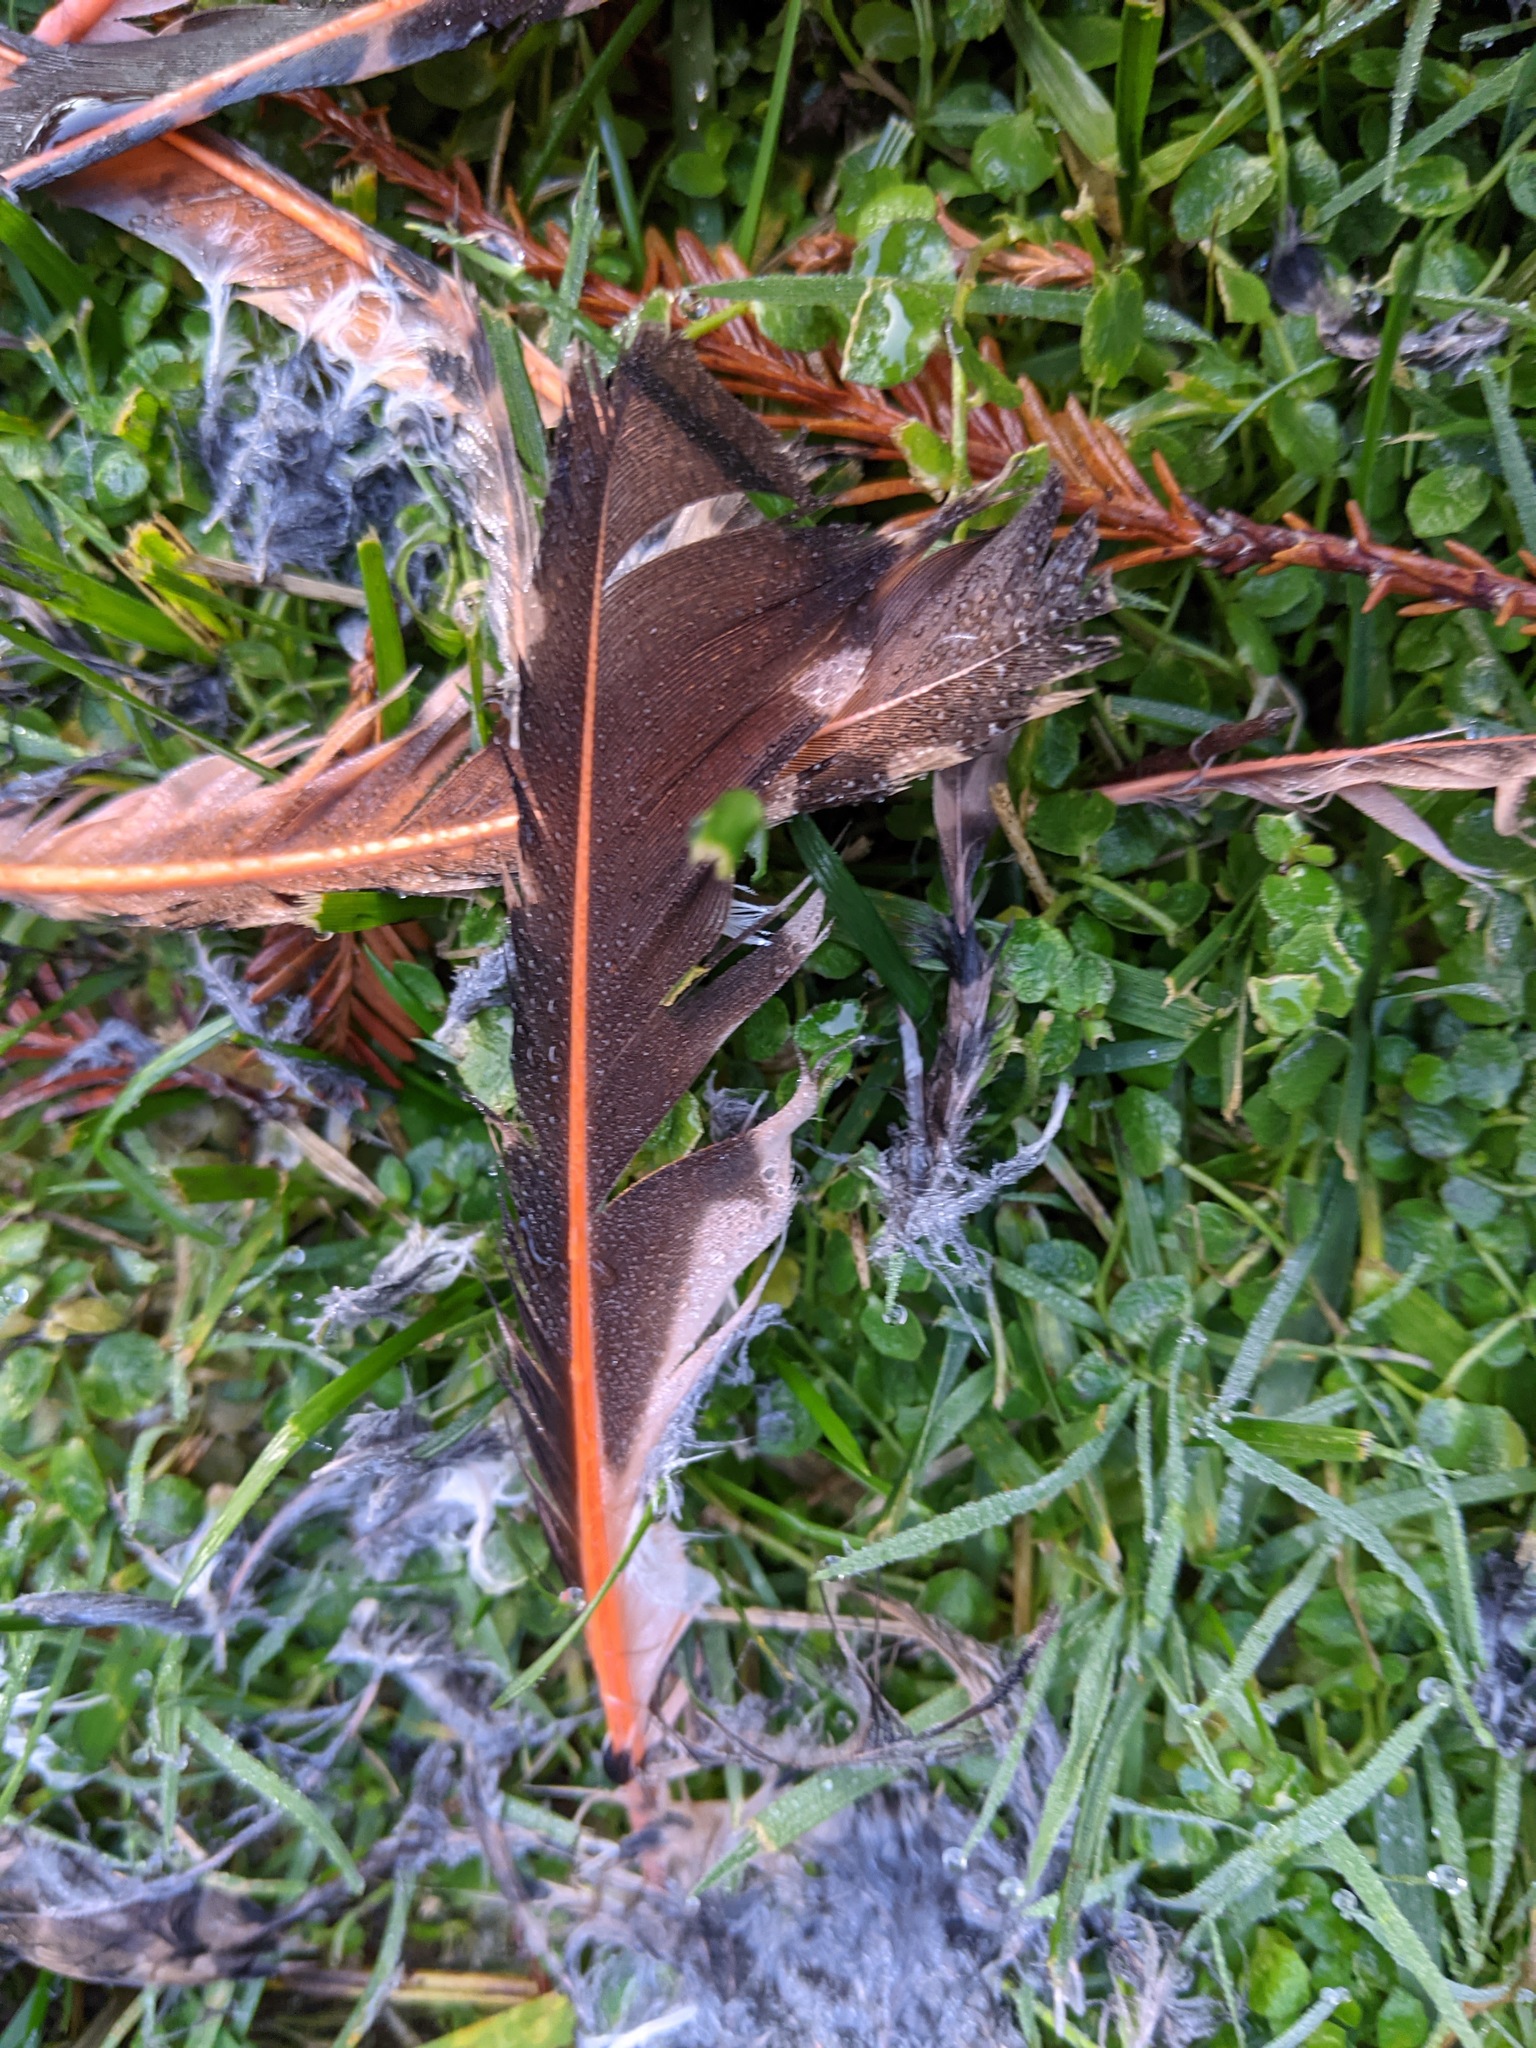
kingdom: Animalia
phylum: Chordata
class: Aves
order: Piciformes
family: Picidae
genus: Colaptes
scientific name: Colaptes auratus
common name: Northern flicker
